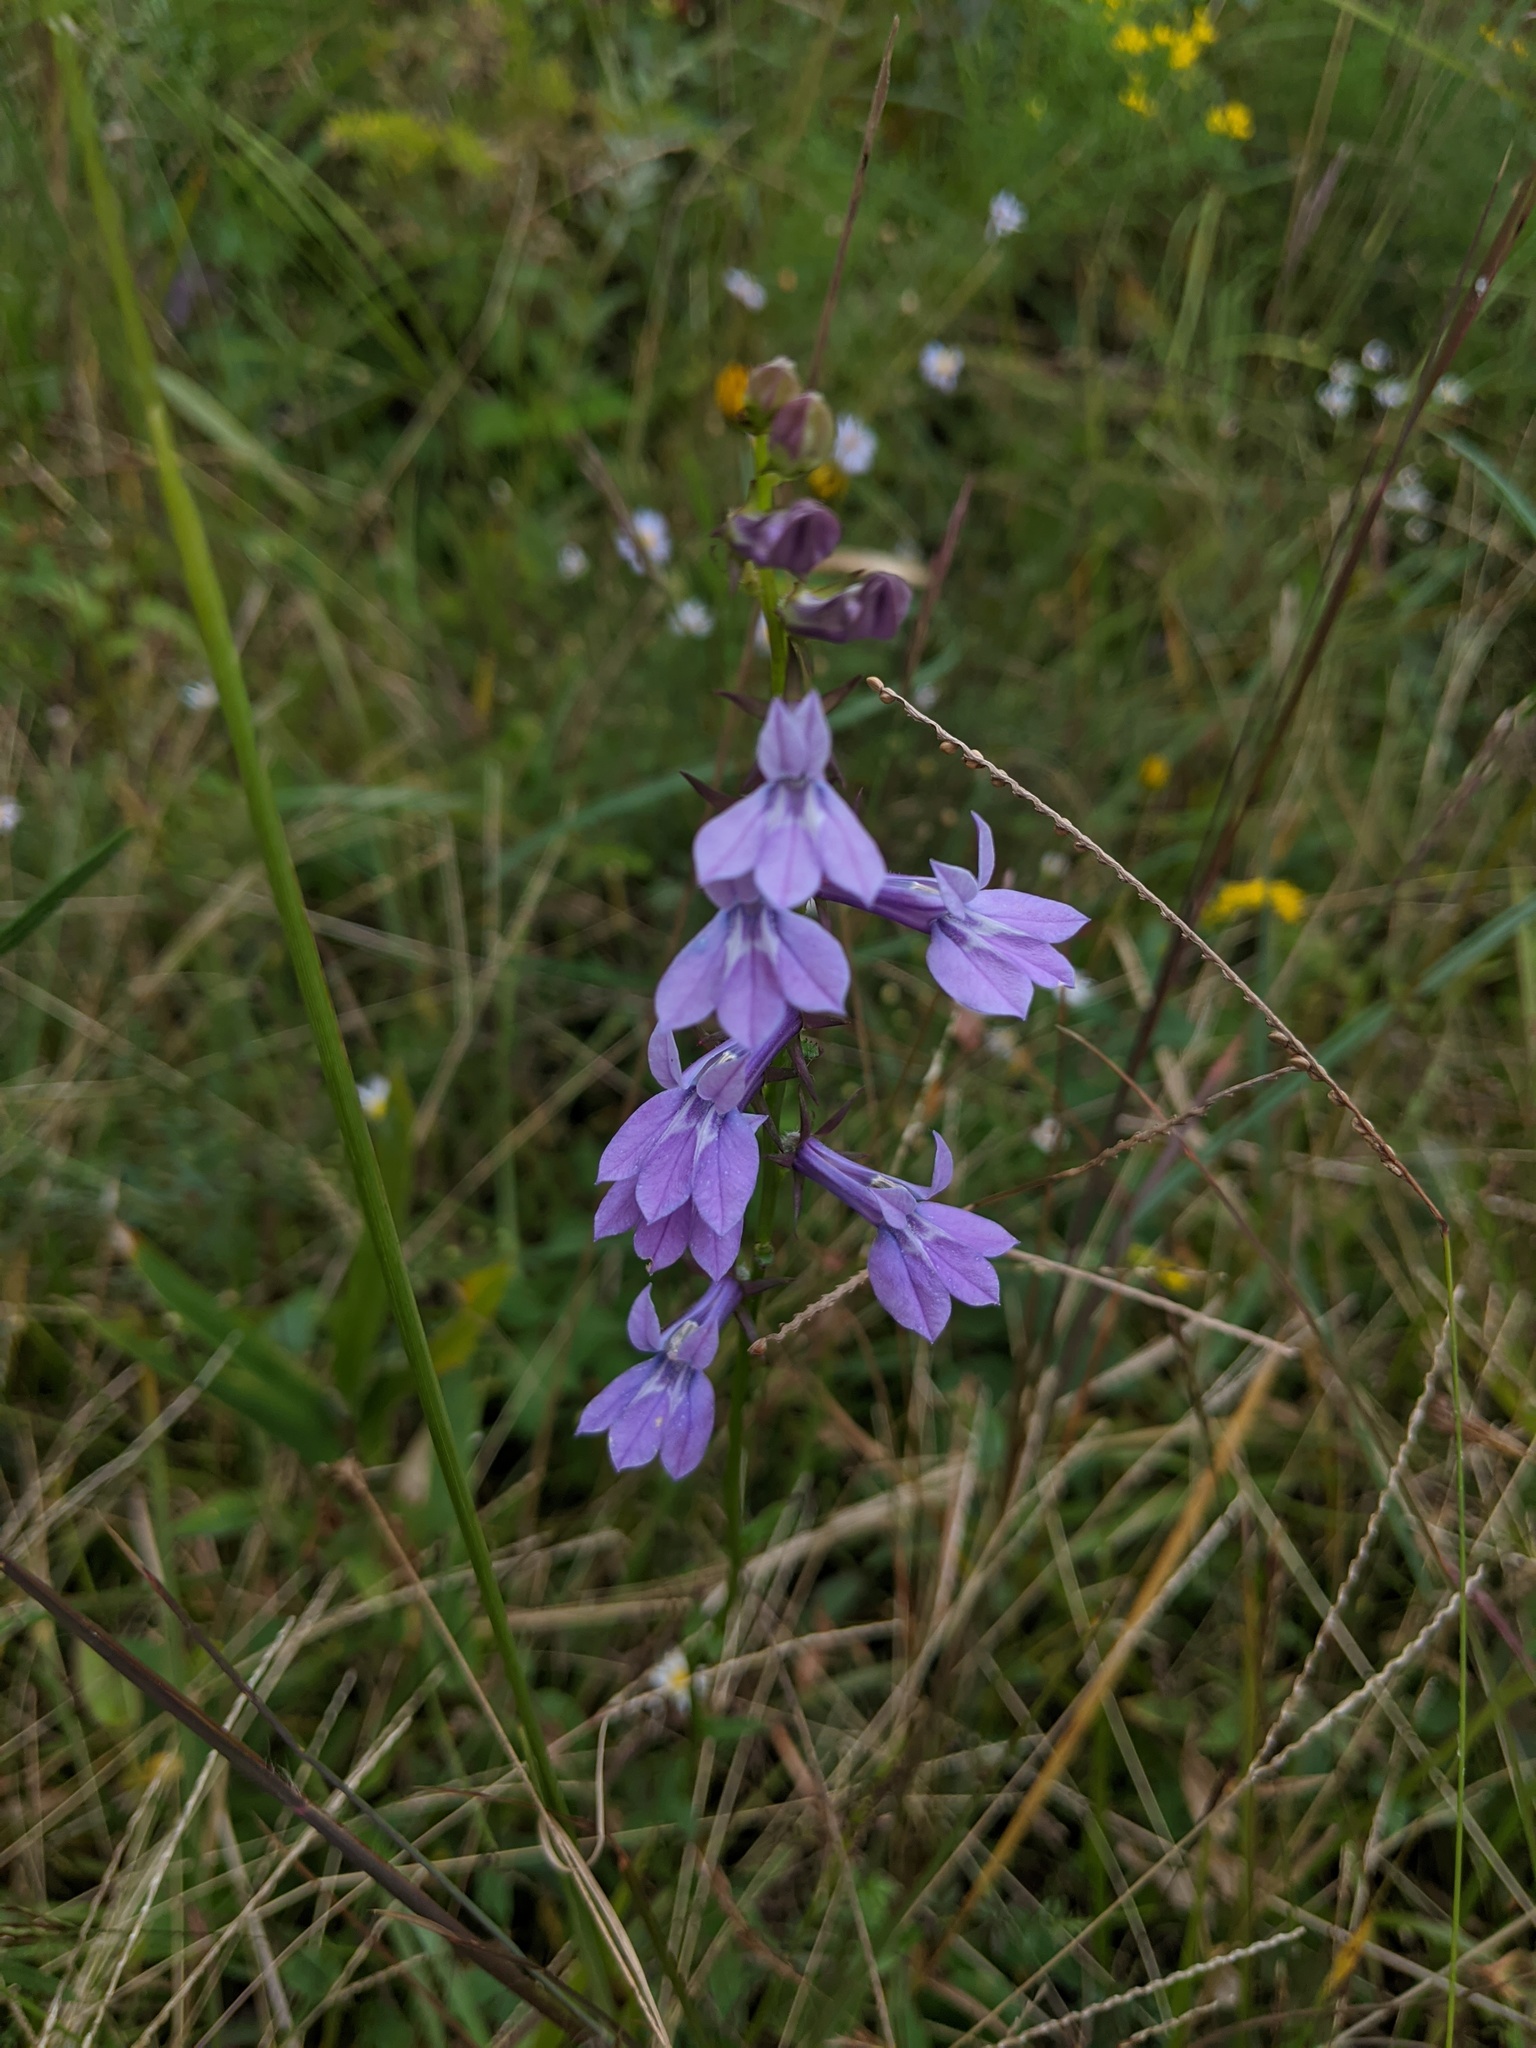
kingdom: Plantae
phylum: Tracheophyta
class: Magnoliopsida
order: Asterales
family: Campanulaceae
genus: Lobelia
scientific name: Lobelia glandulosa
